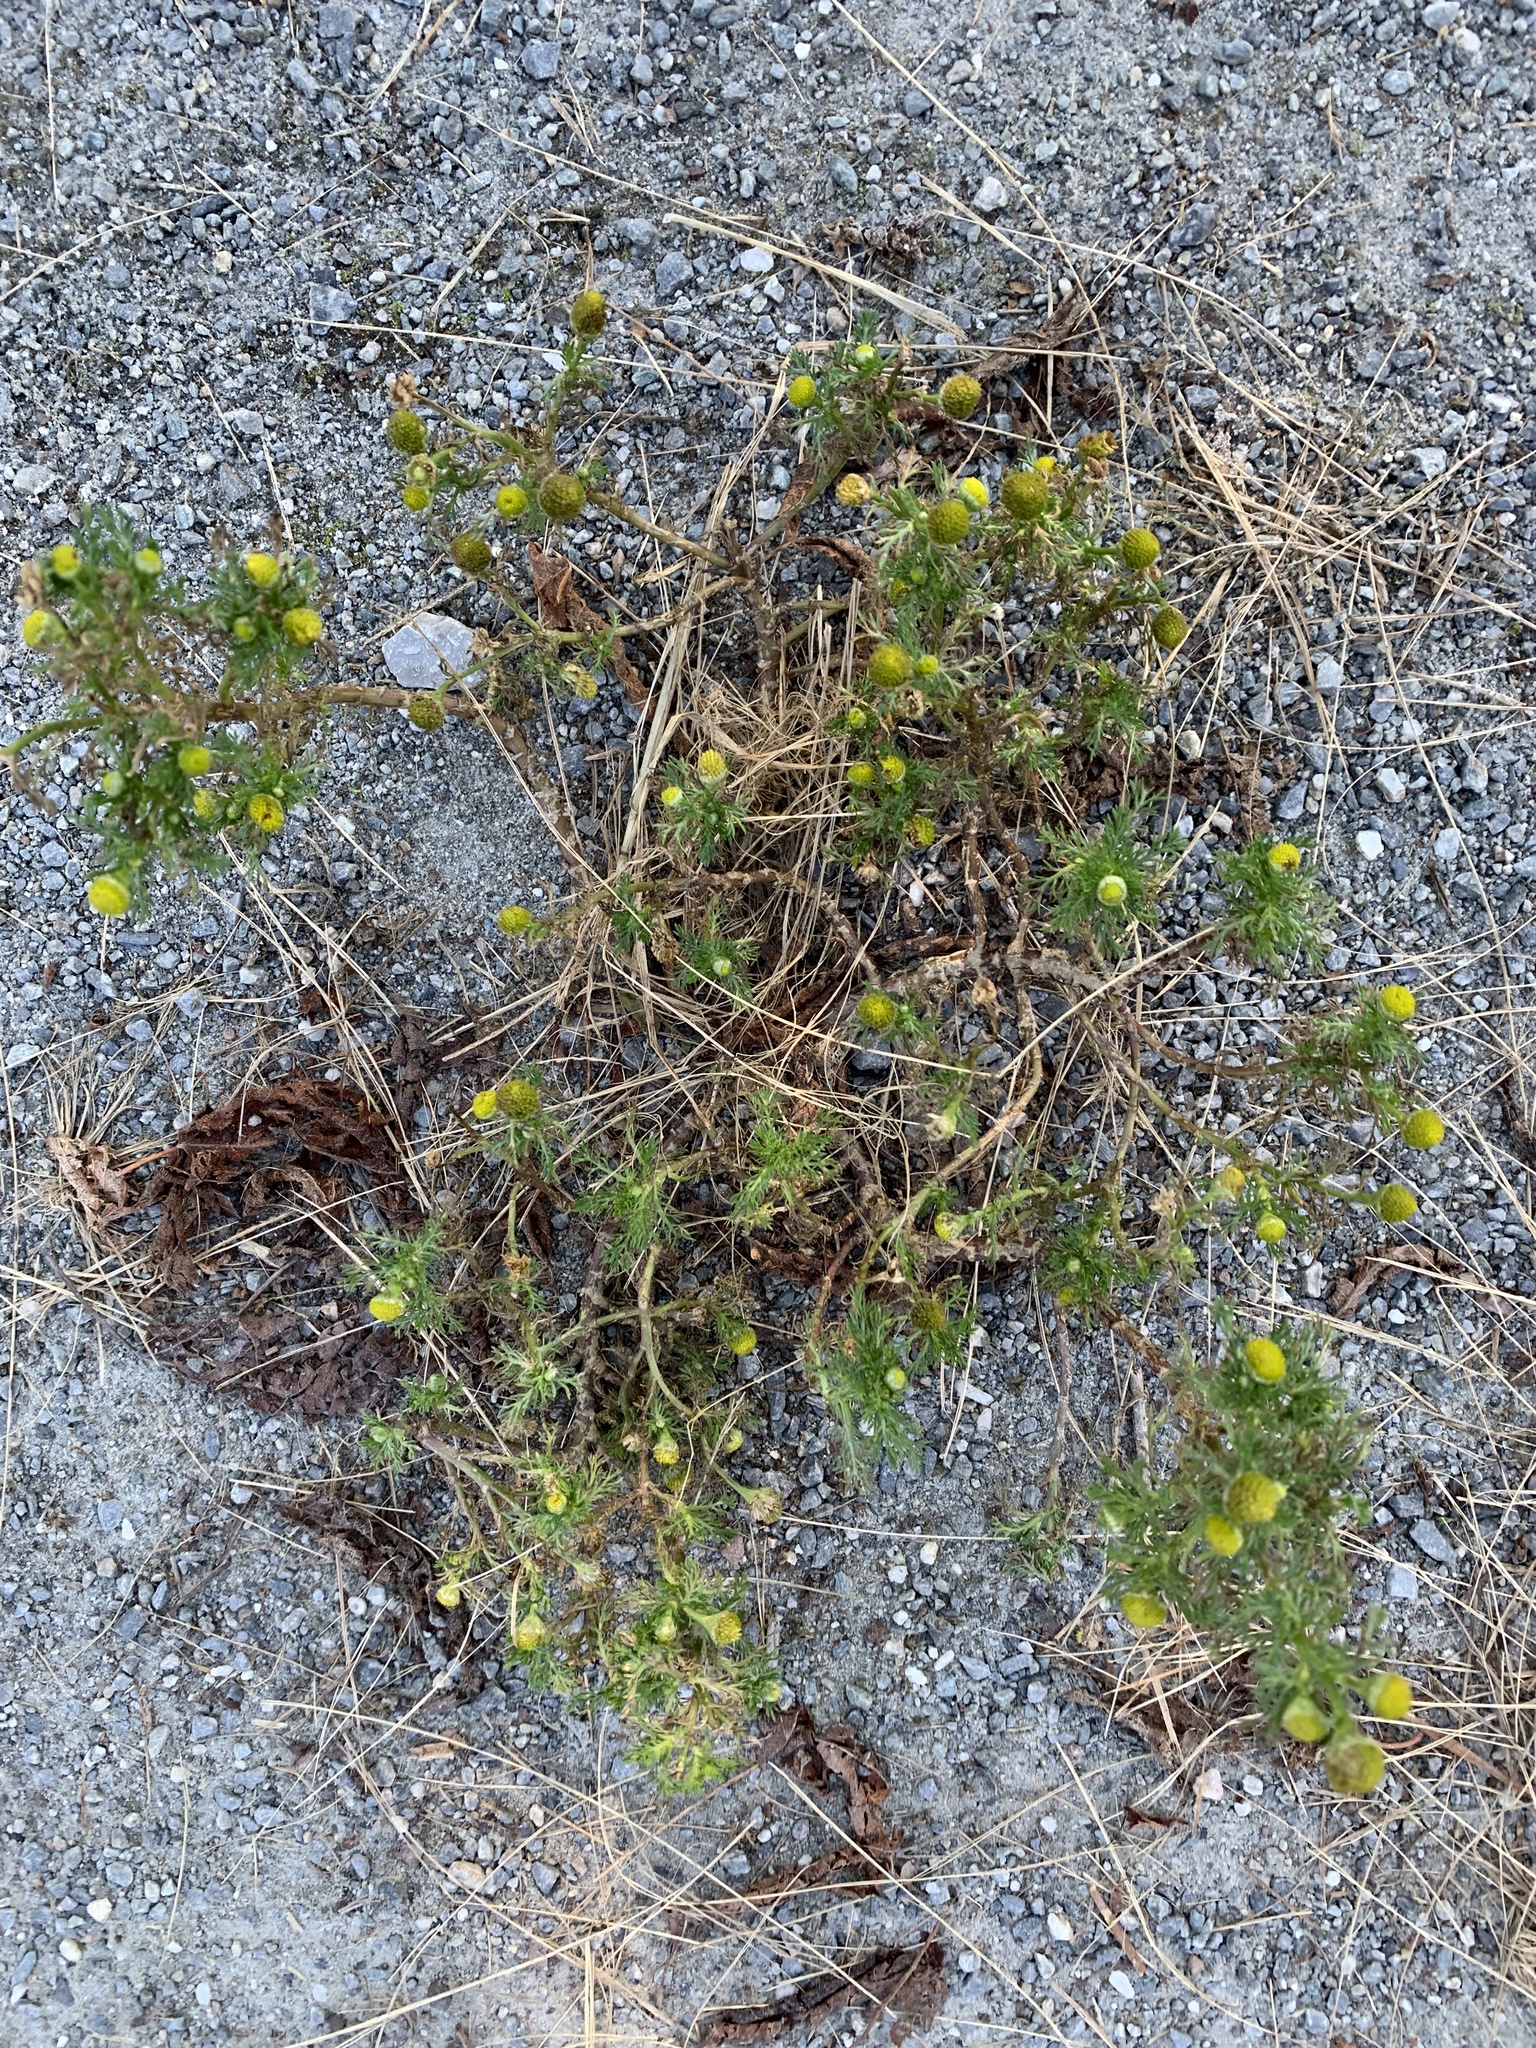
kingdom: Plantae
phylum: Tracheophyta
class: Magnoliopsida
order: Asterales
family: Asteraceae
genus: Matricaria
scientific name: Matricaria discoidea
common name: Disc mayweed
